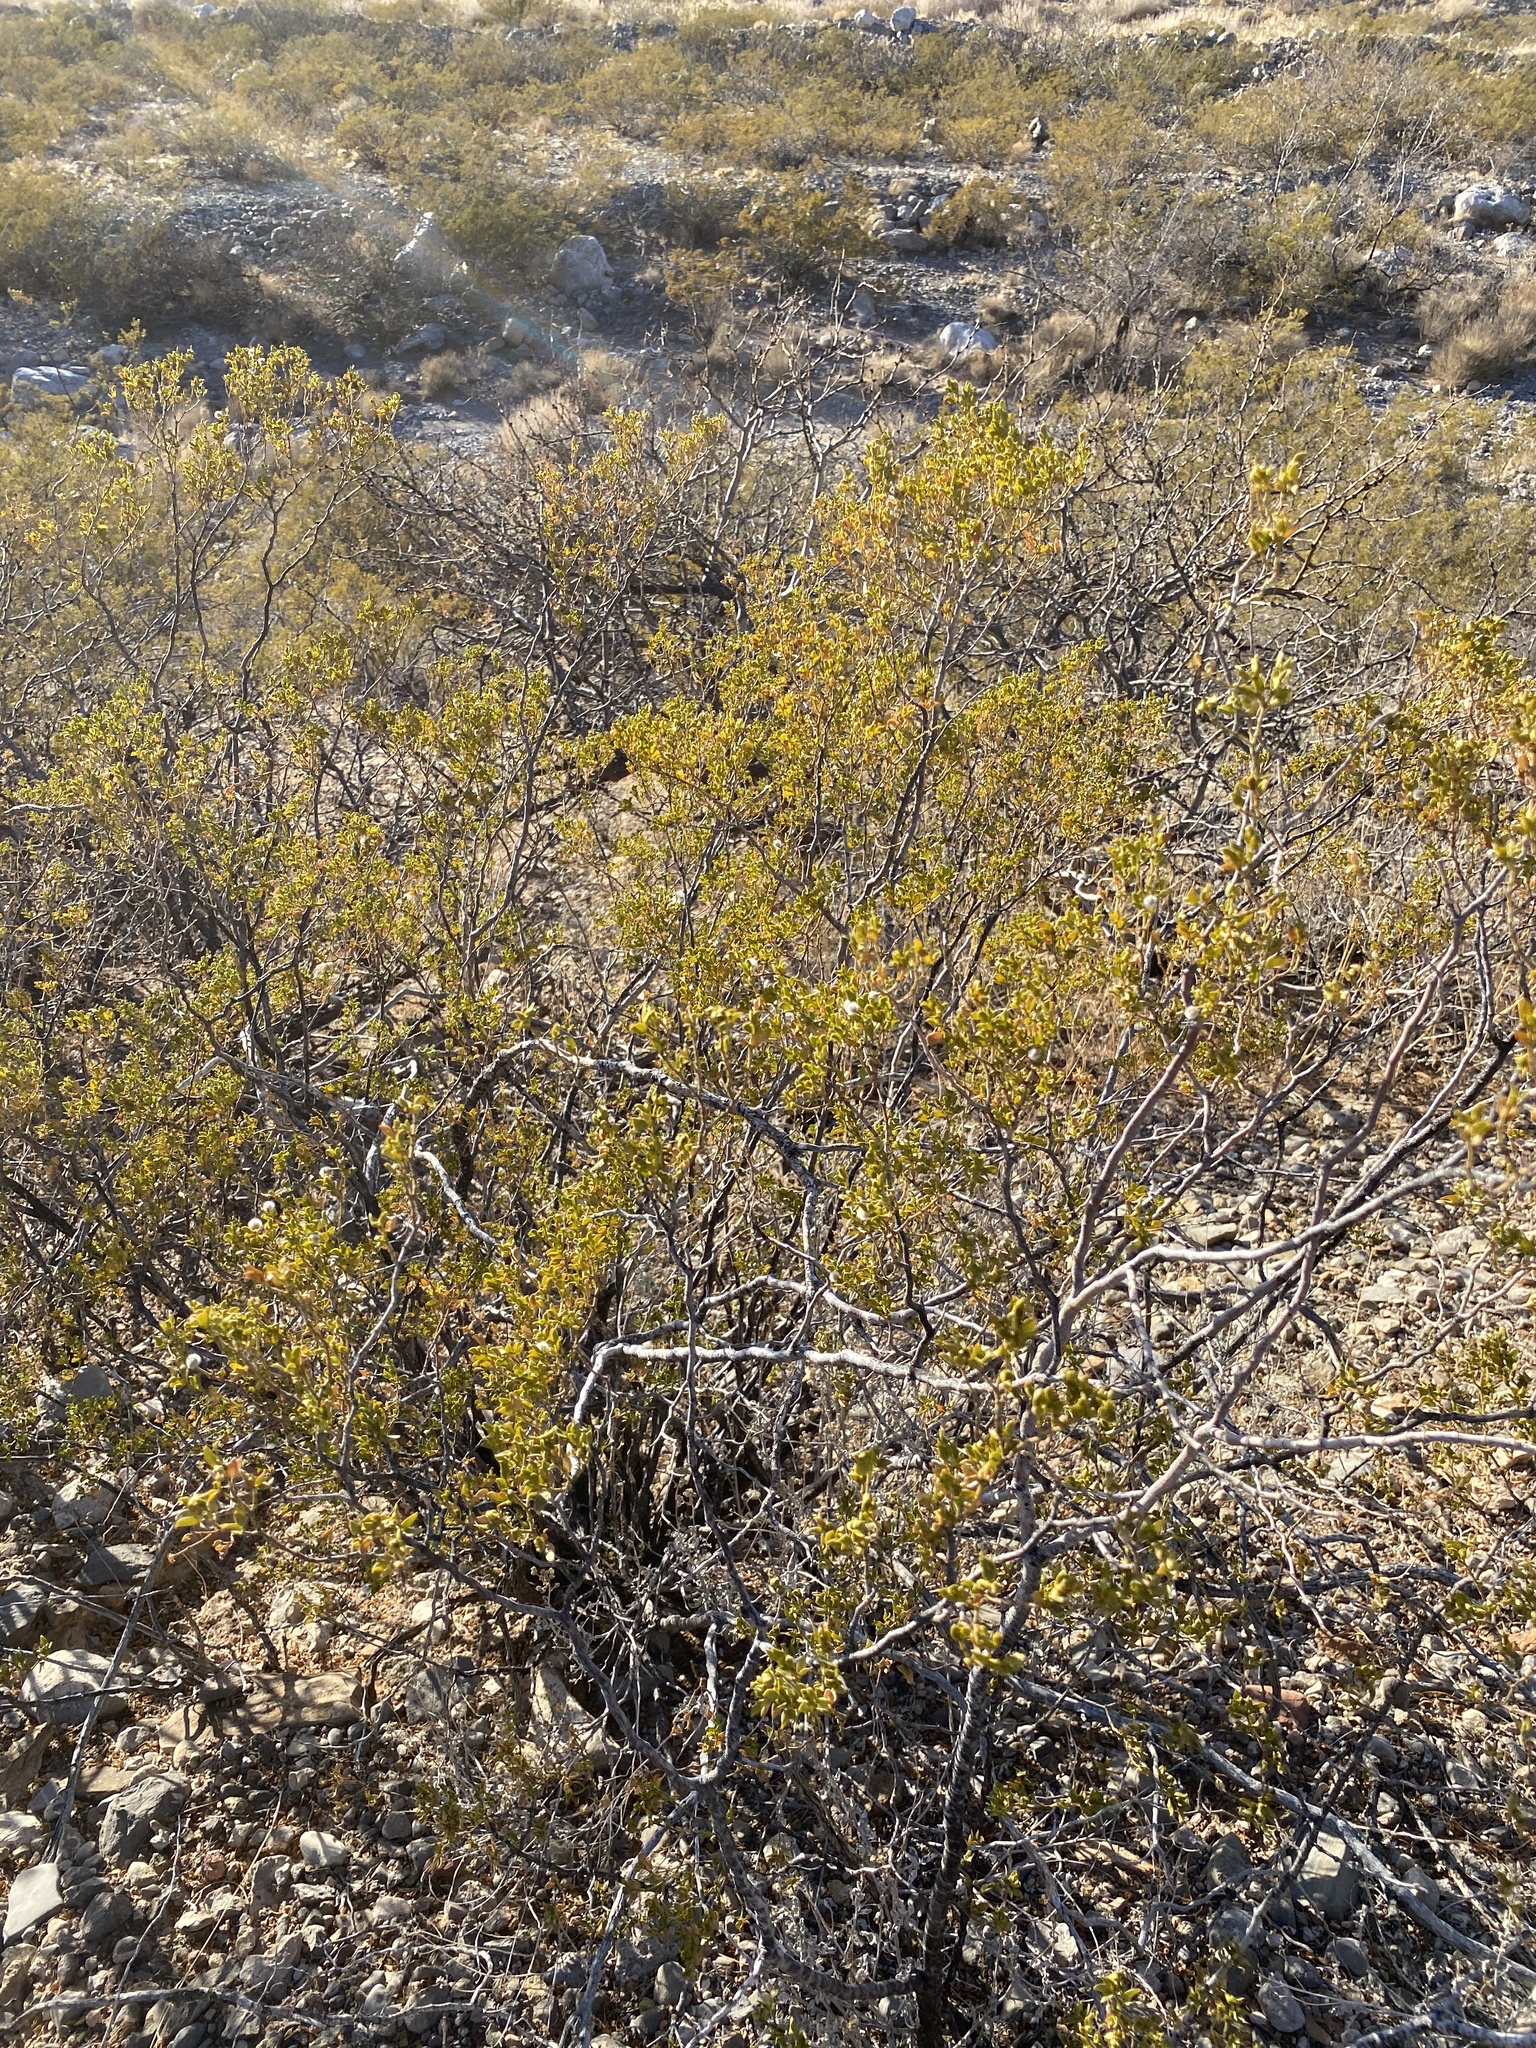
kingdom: Plantae
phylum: Tracheophyta
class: Magnoliopsida
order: Zygophyllales
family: Zygophyllaceae
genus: Larrea
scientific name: Larrea tridentata
